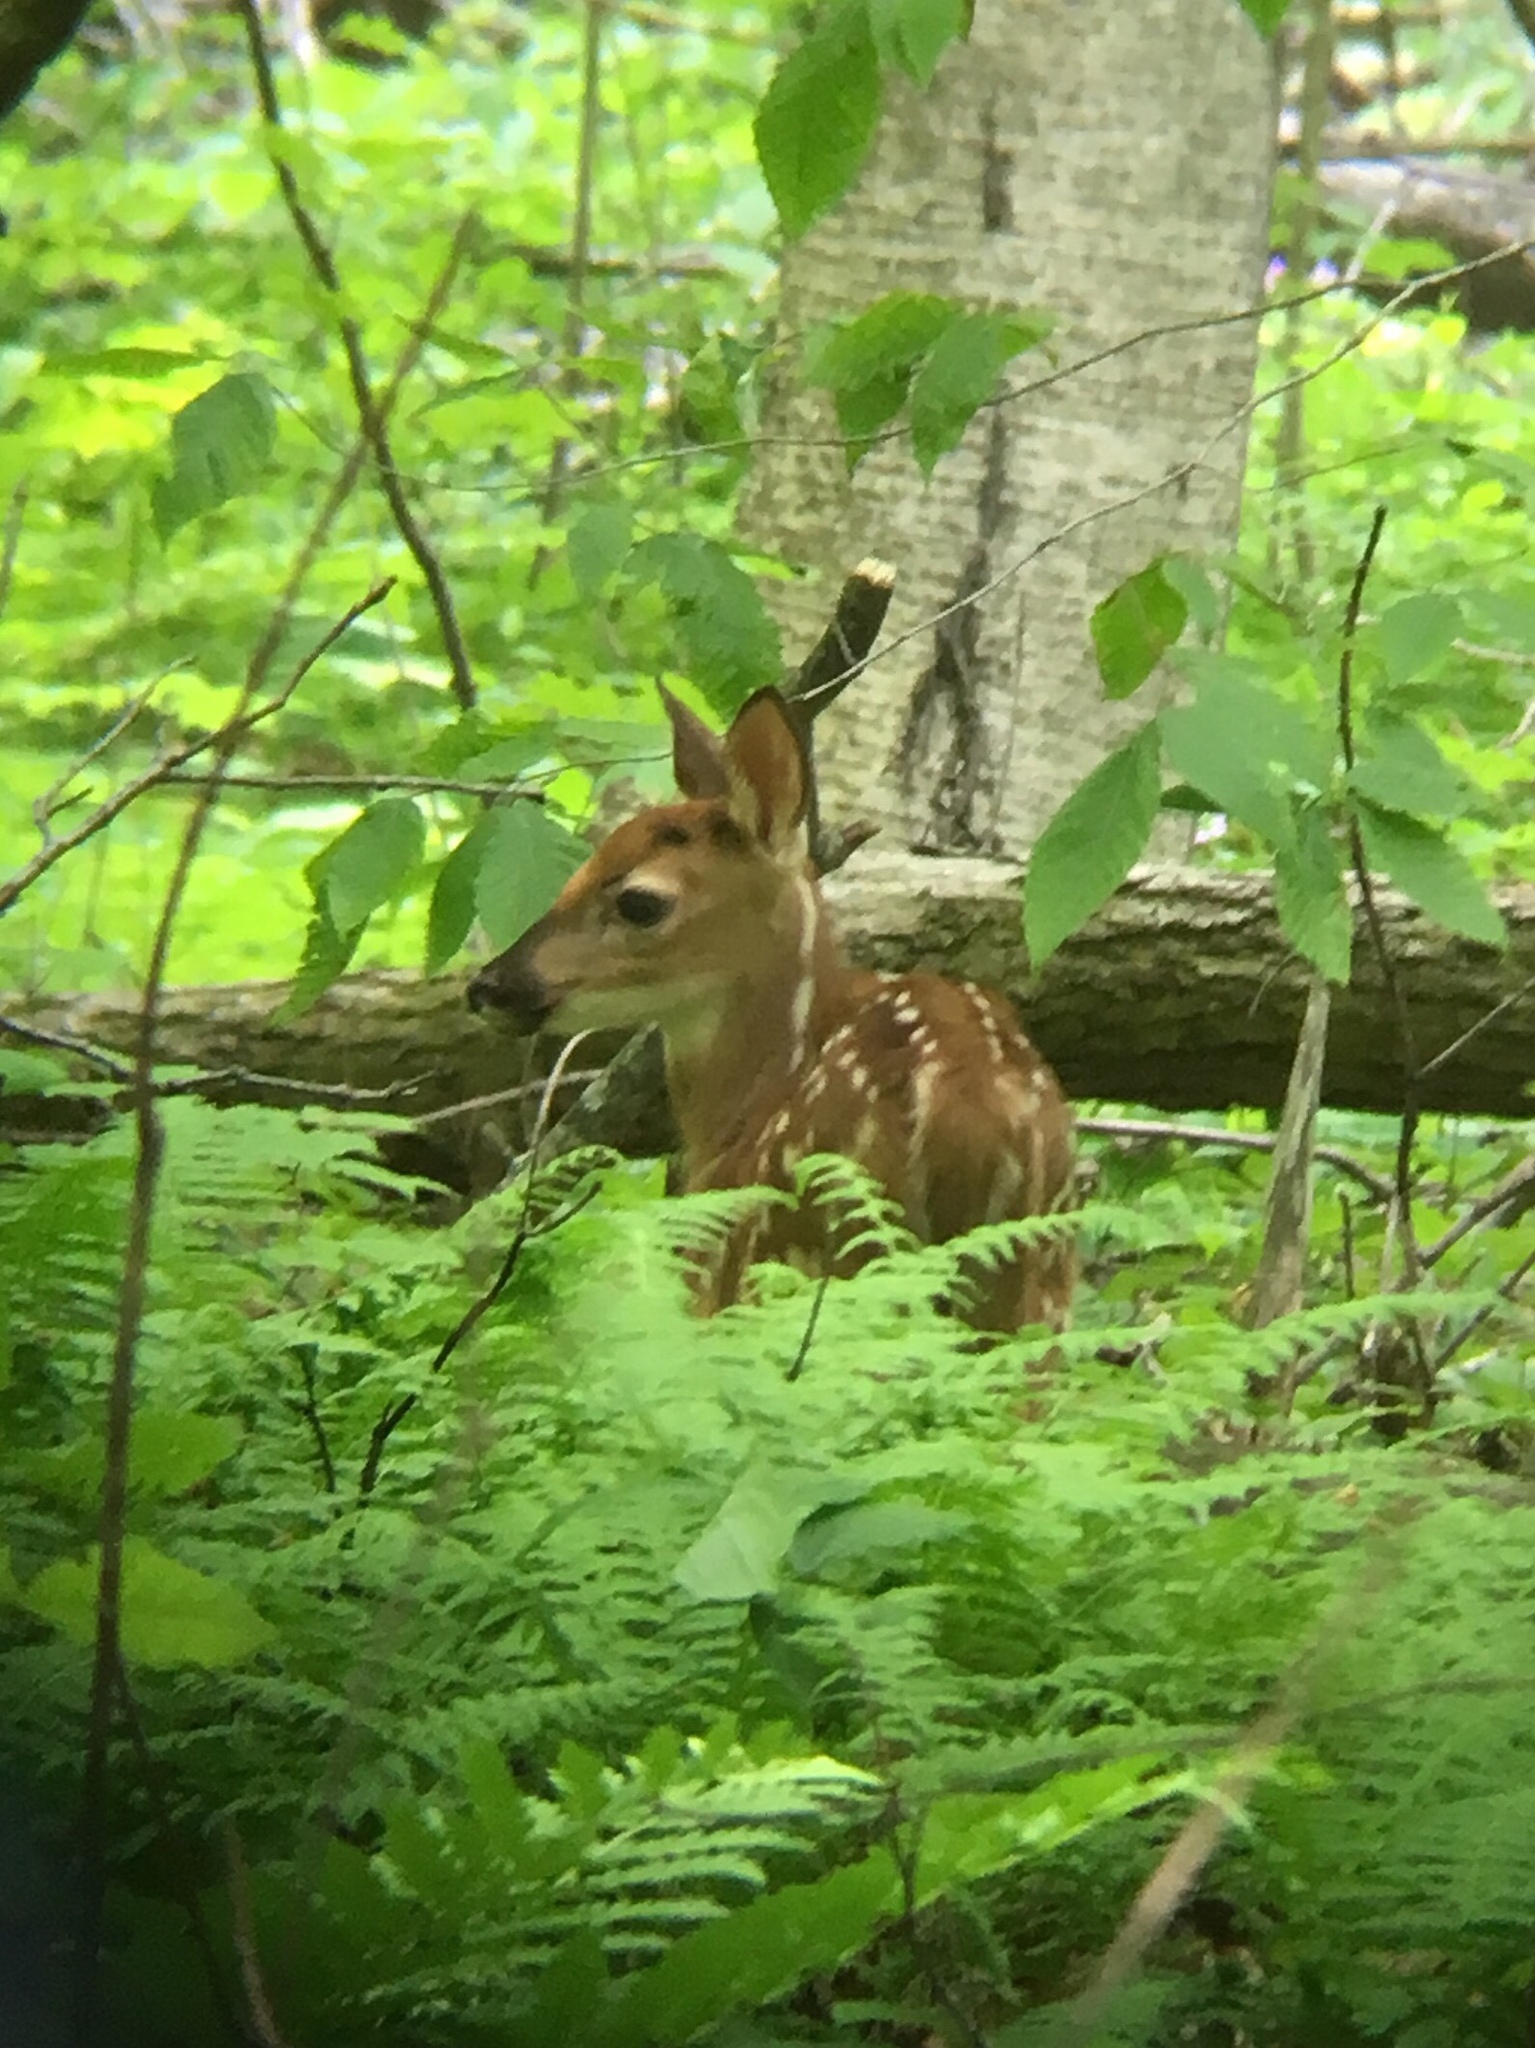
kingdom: Animalia
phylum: Chordata
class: Mammalia
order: Artiodactyla
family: Cervidae
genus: Odocoileus
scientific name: Odocoileus virginianus
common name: White-tailed deer
